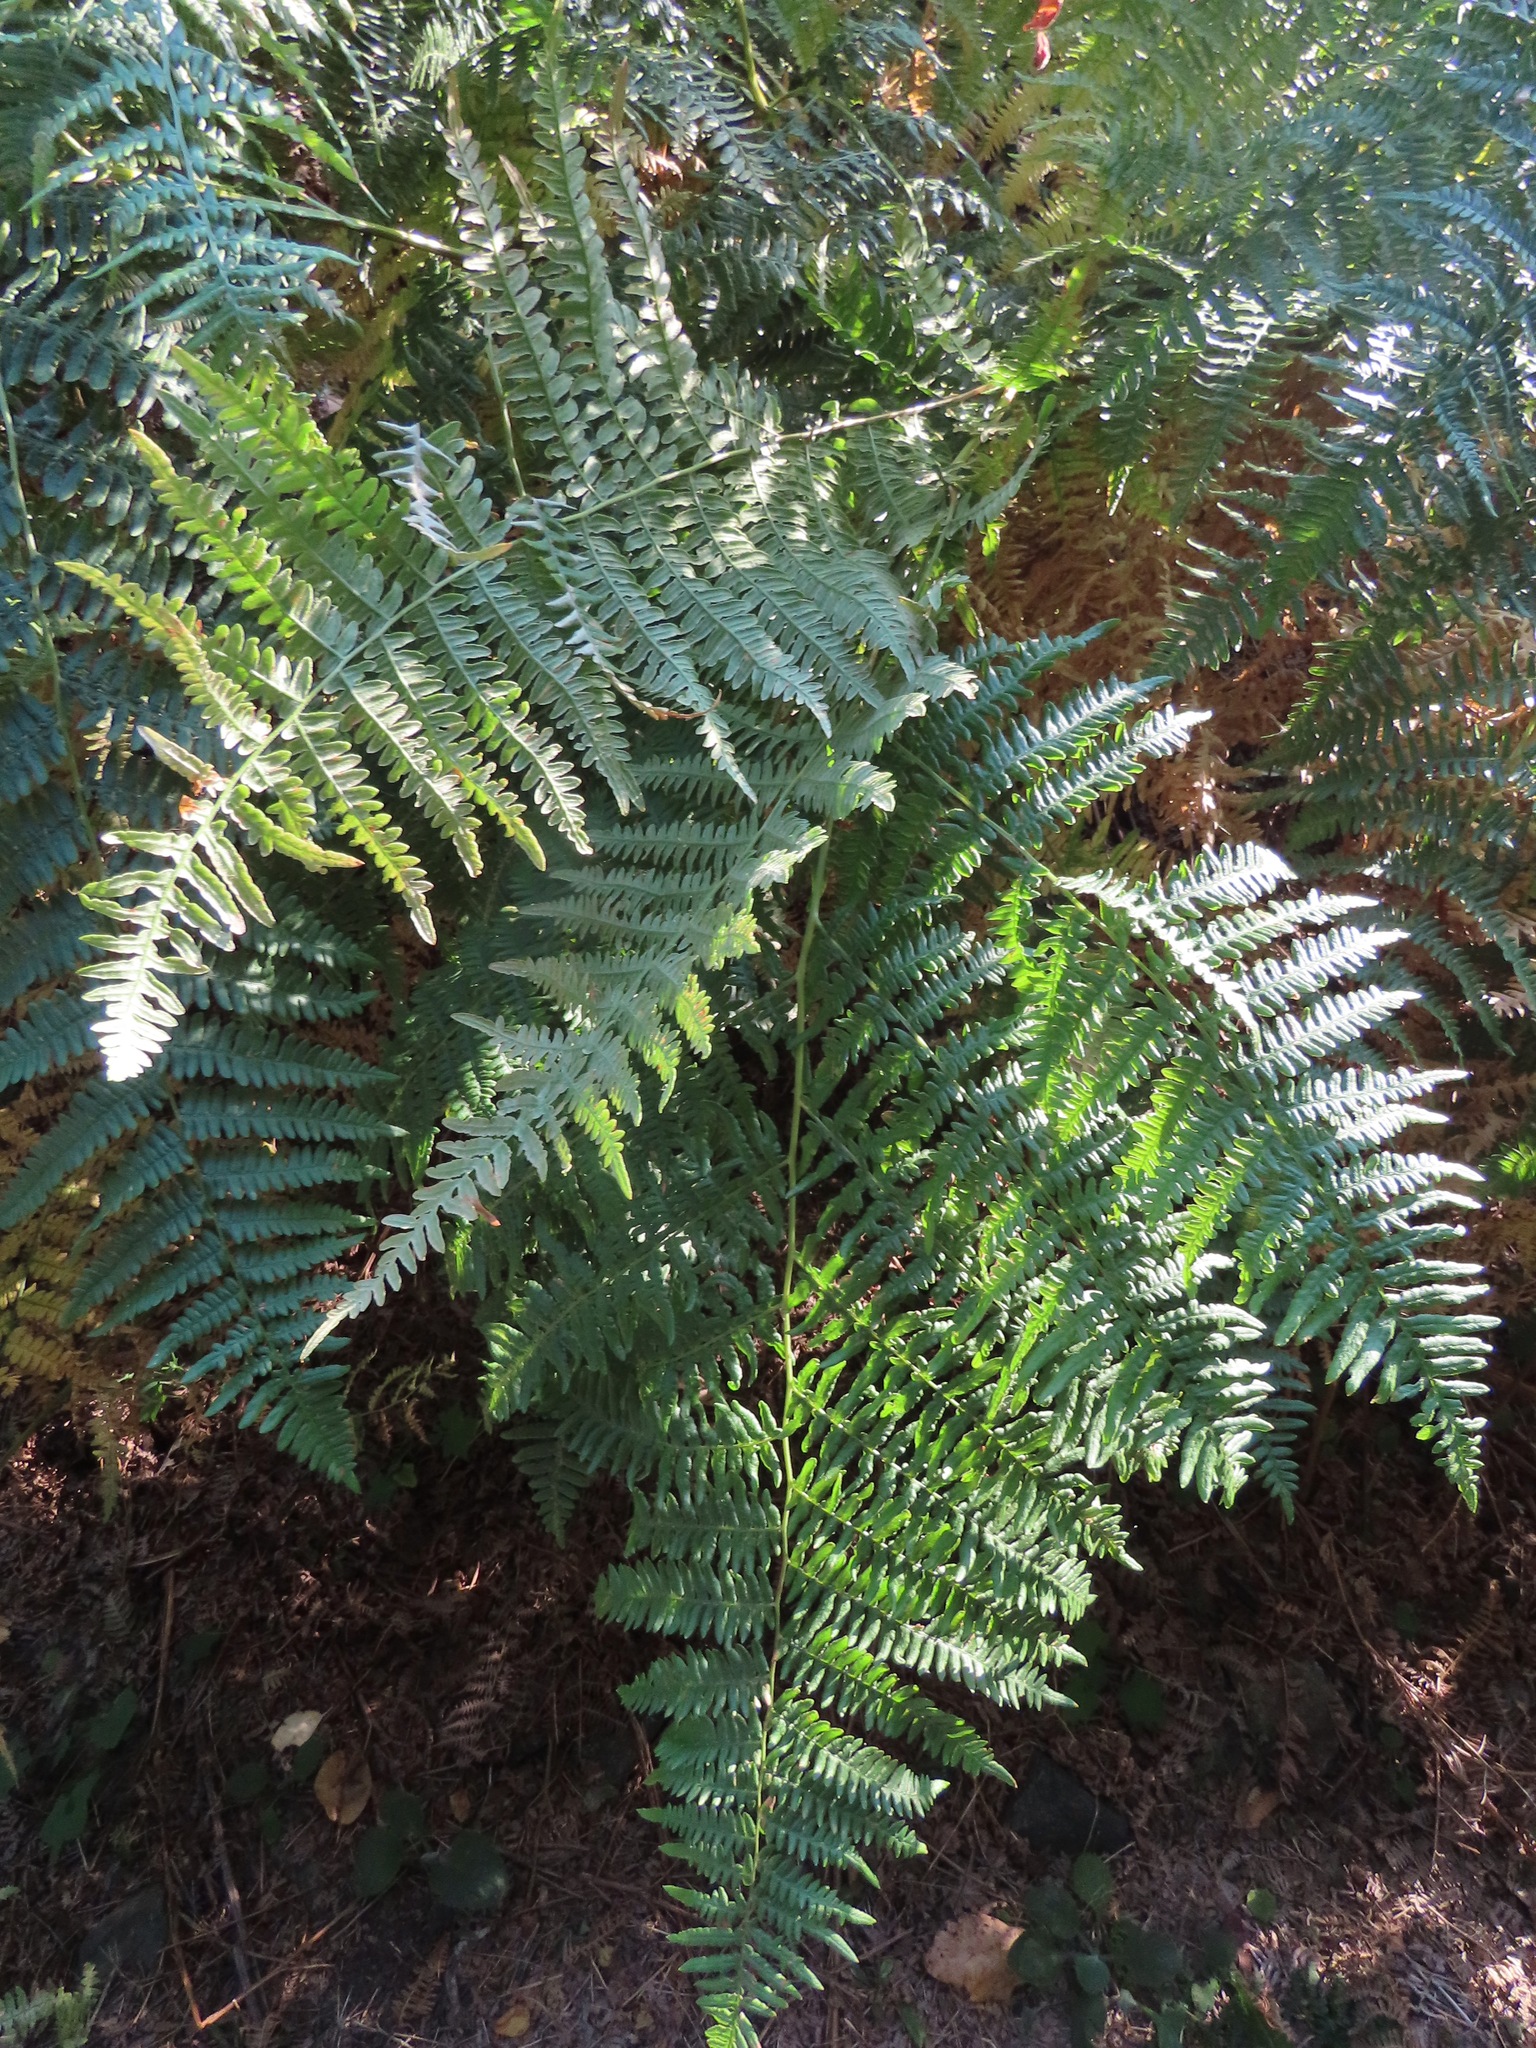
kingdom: Plantae
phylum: Tracheophyta
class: Polypodiopsida
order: Polypodiales
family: Dennstaedtiaceae
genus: Pteridium
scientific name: Pteridium aquilinum
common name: Bracken
